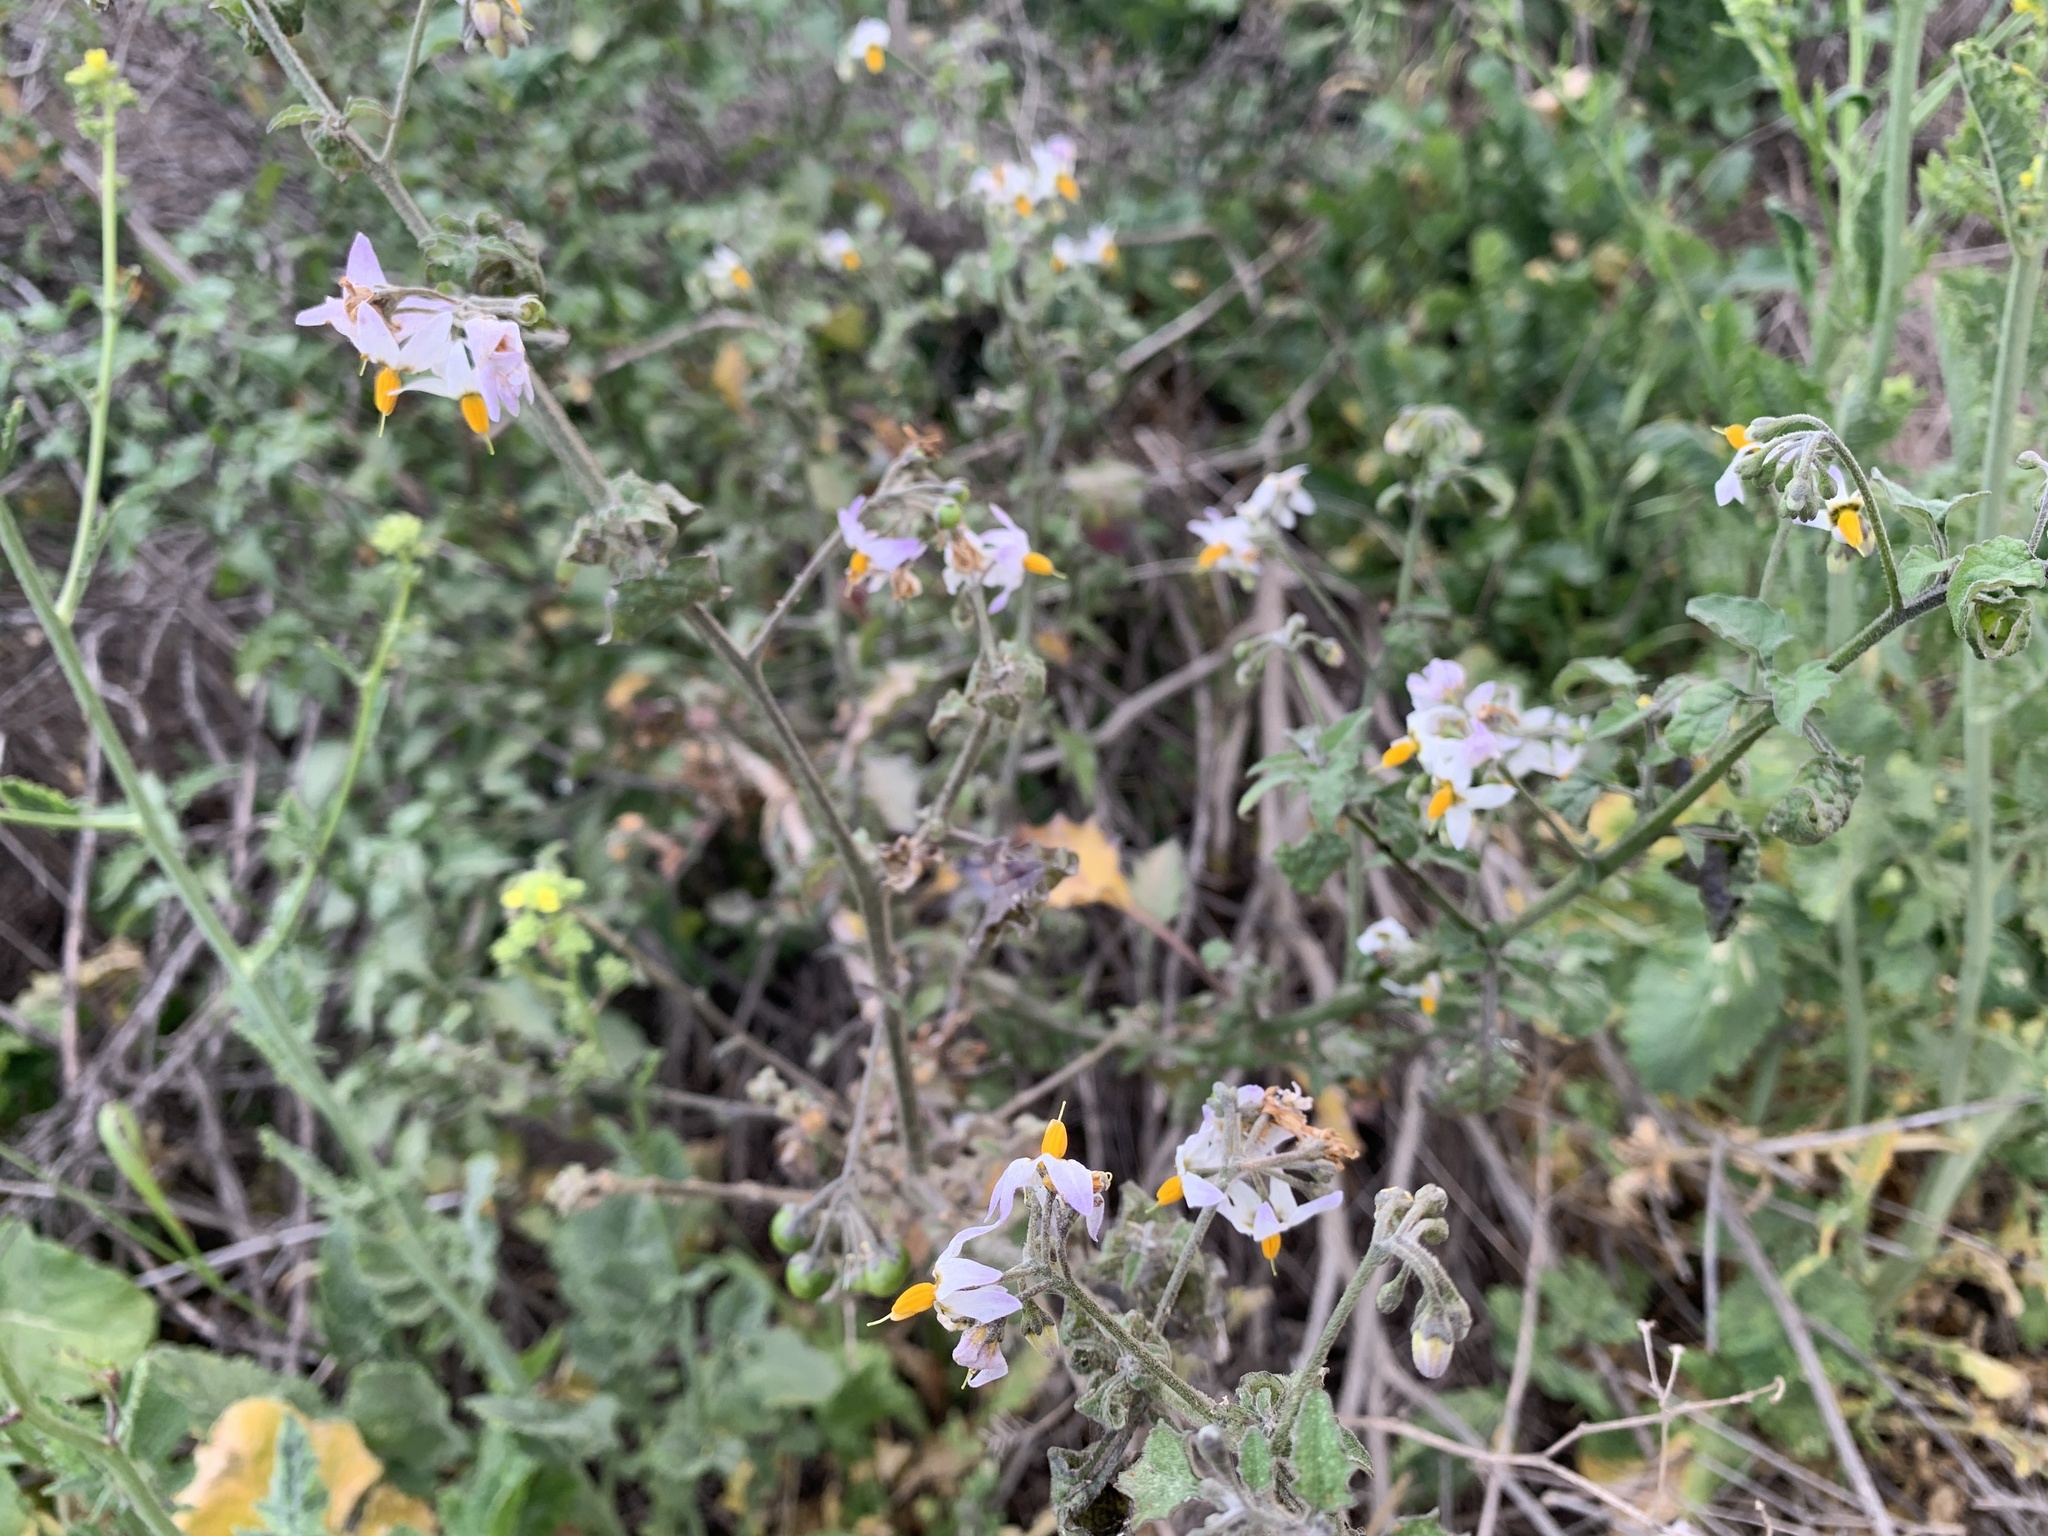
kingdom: Plantae
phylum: Tracheophyta
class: Magnoliopsida
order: Solanales
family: Solanaceae
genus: Solanum
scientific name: Solanum douglasii
